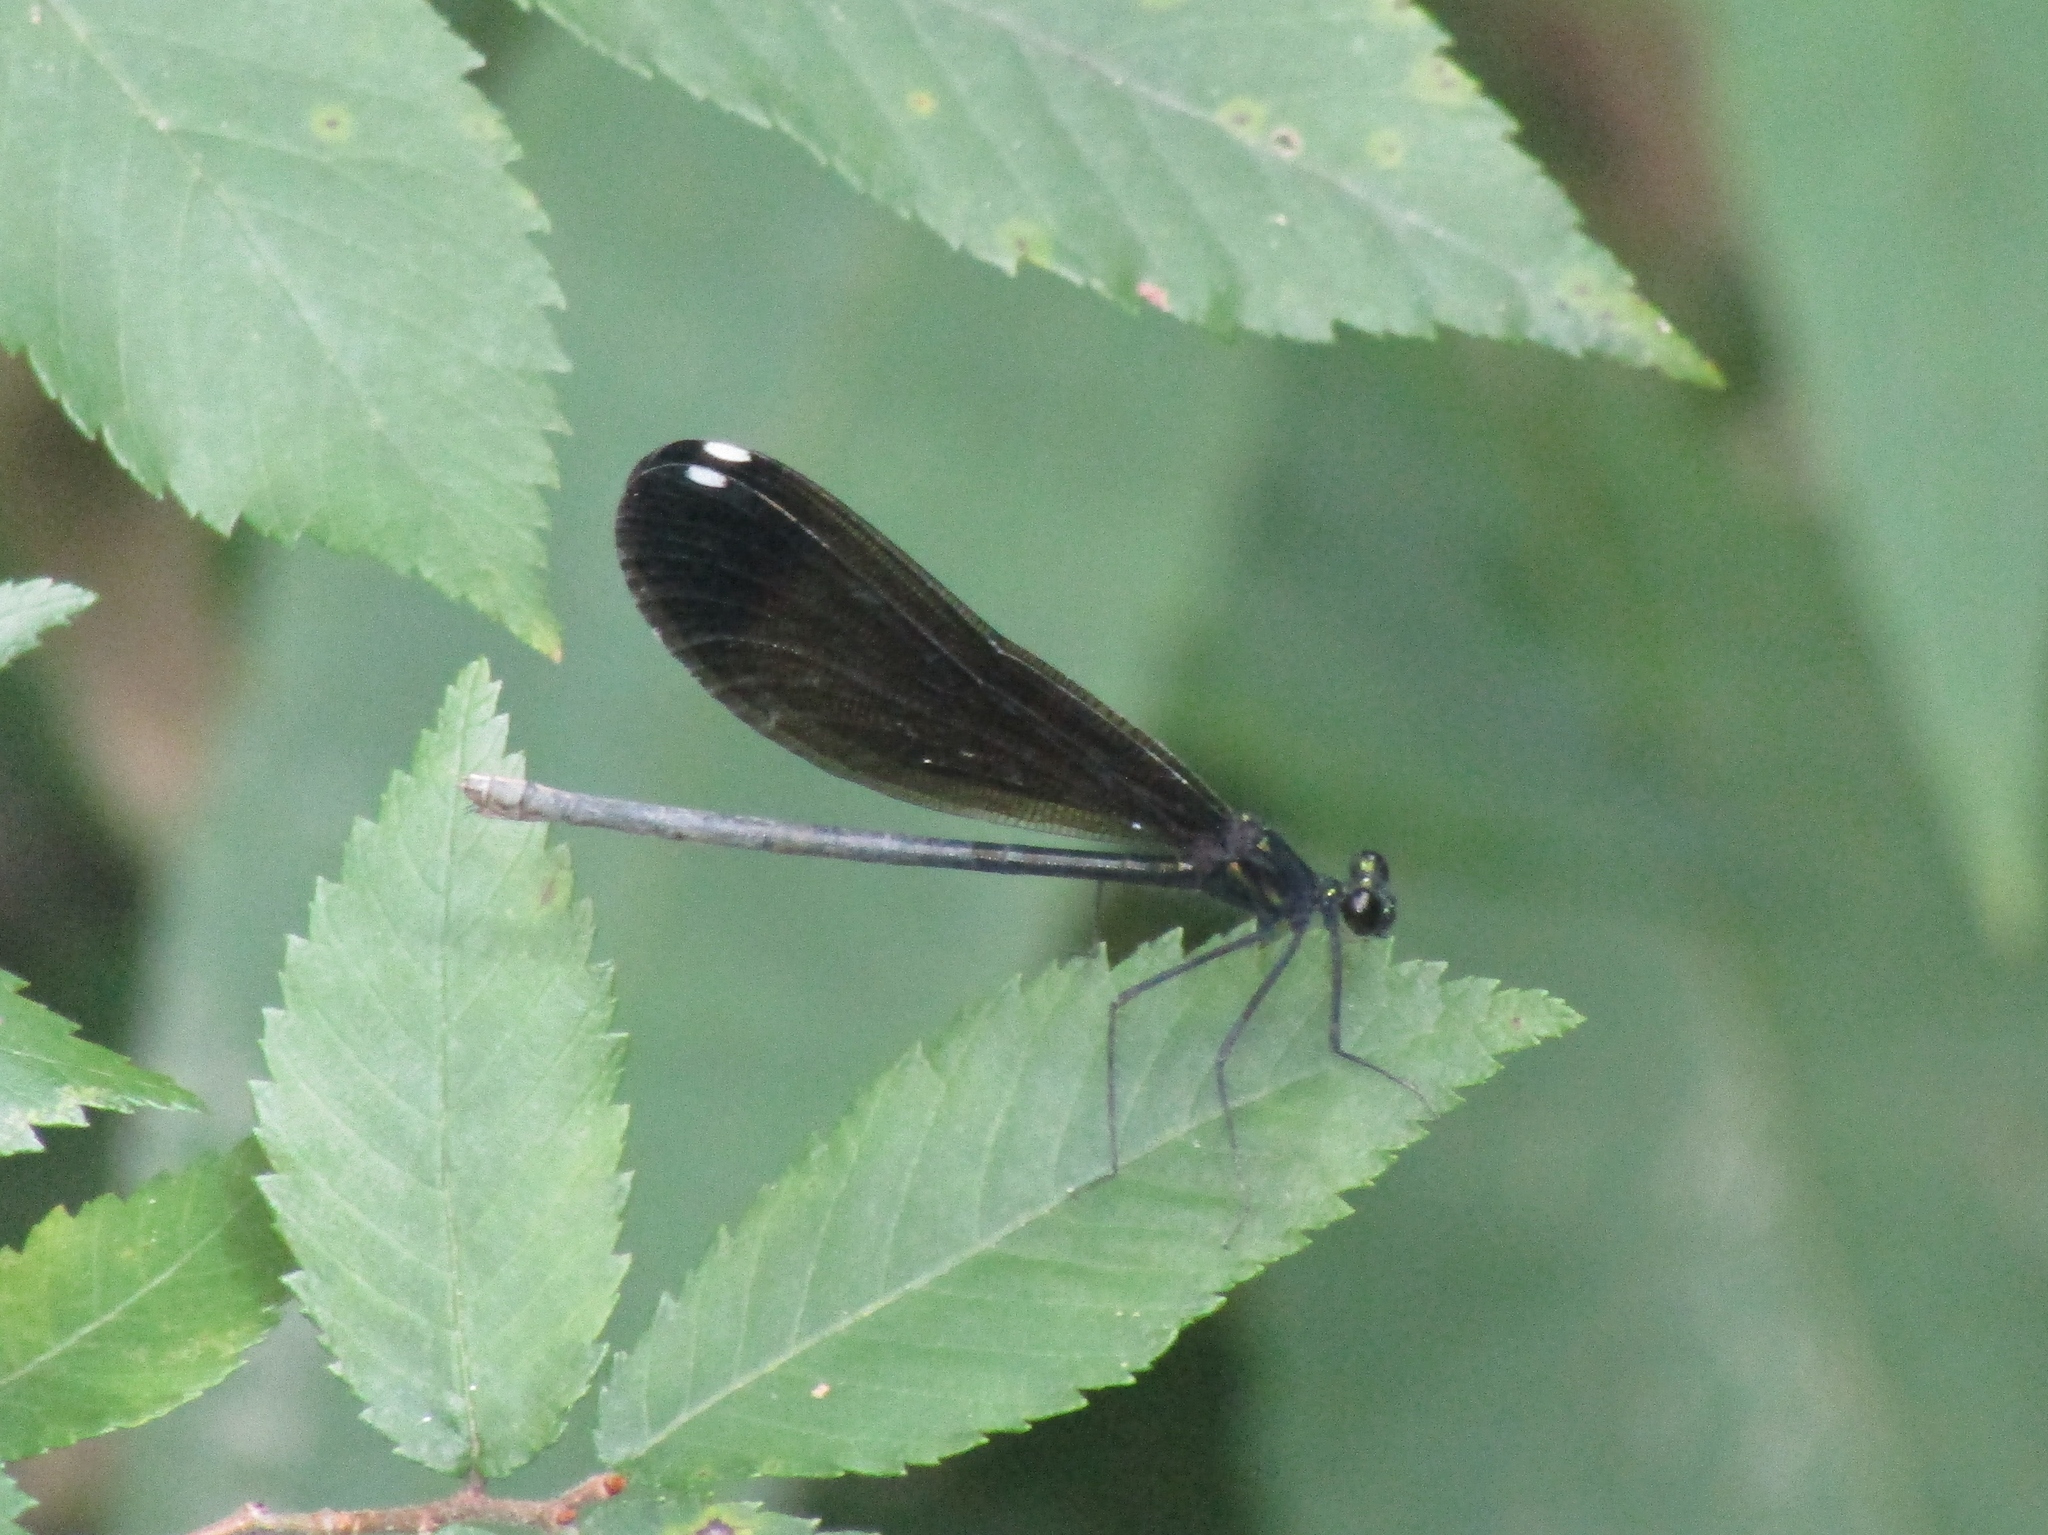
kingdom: Animalia
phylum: Arthropoda
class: Insecta
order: Odonata
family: Calopterygidae
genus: Calopteryx
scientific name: Calopteryx maculata
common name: Ebony jewelwing
